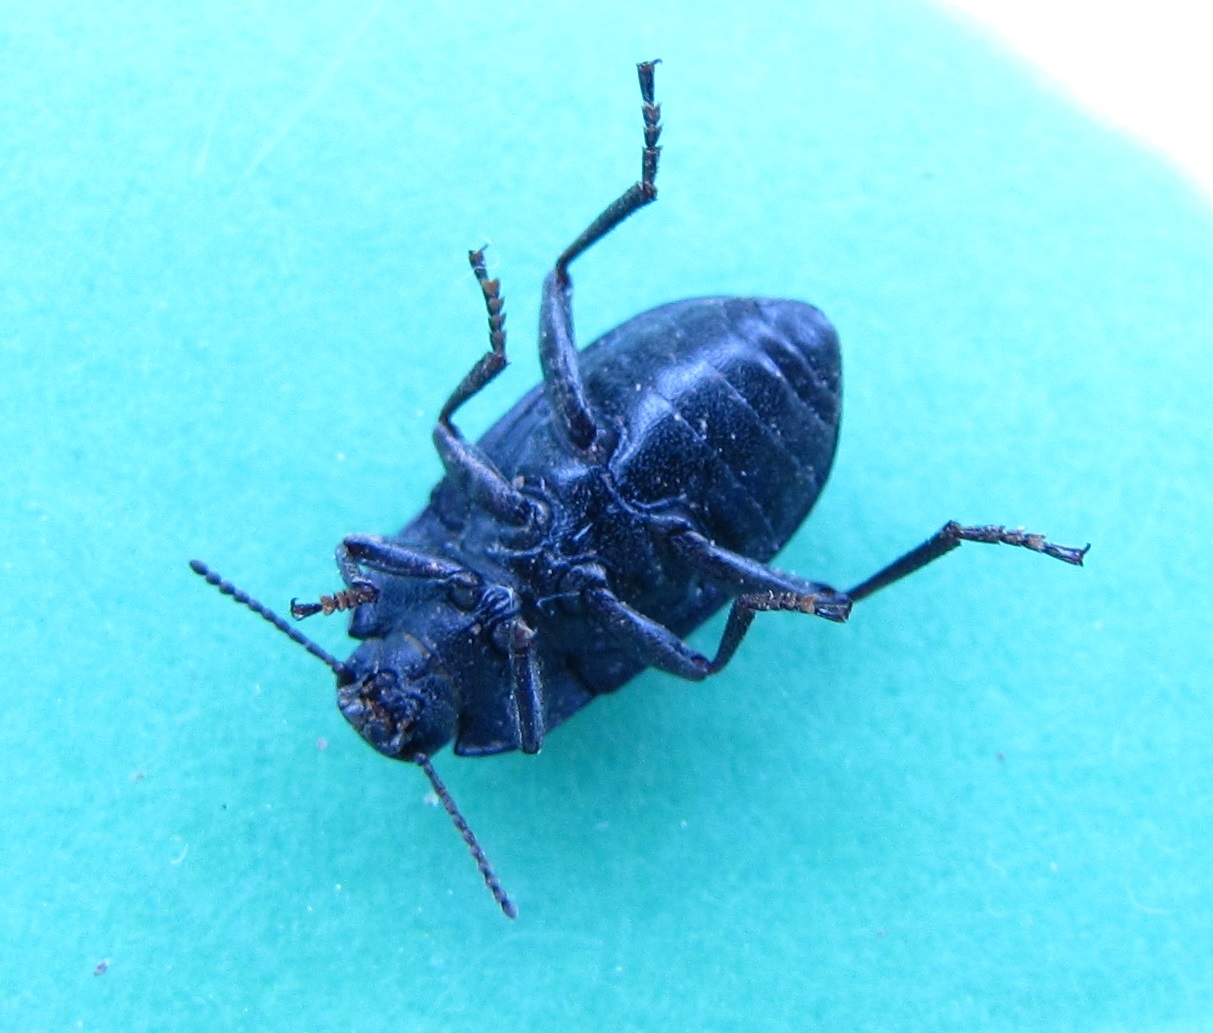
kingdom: Animalia
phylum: Arthropoda
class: Insecta
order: Coleoptera
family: Tenebrionidae
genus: Asiopus
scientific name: Asiopus
